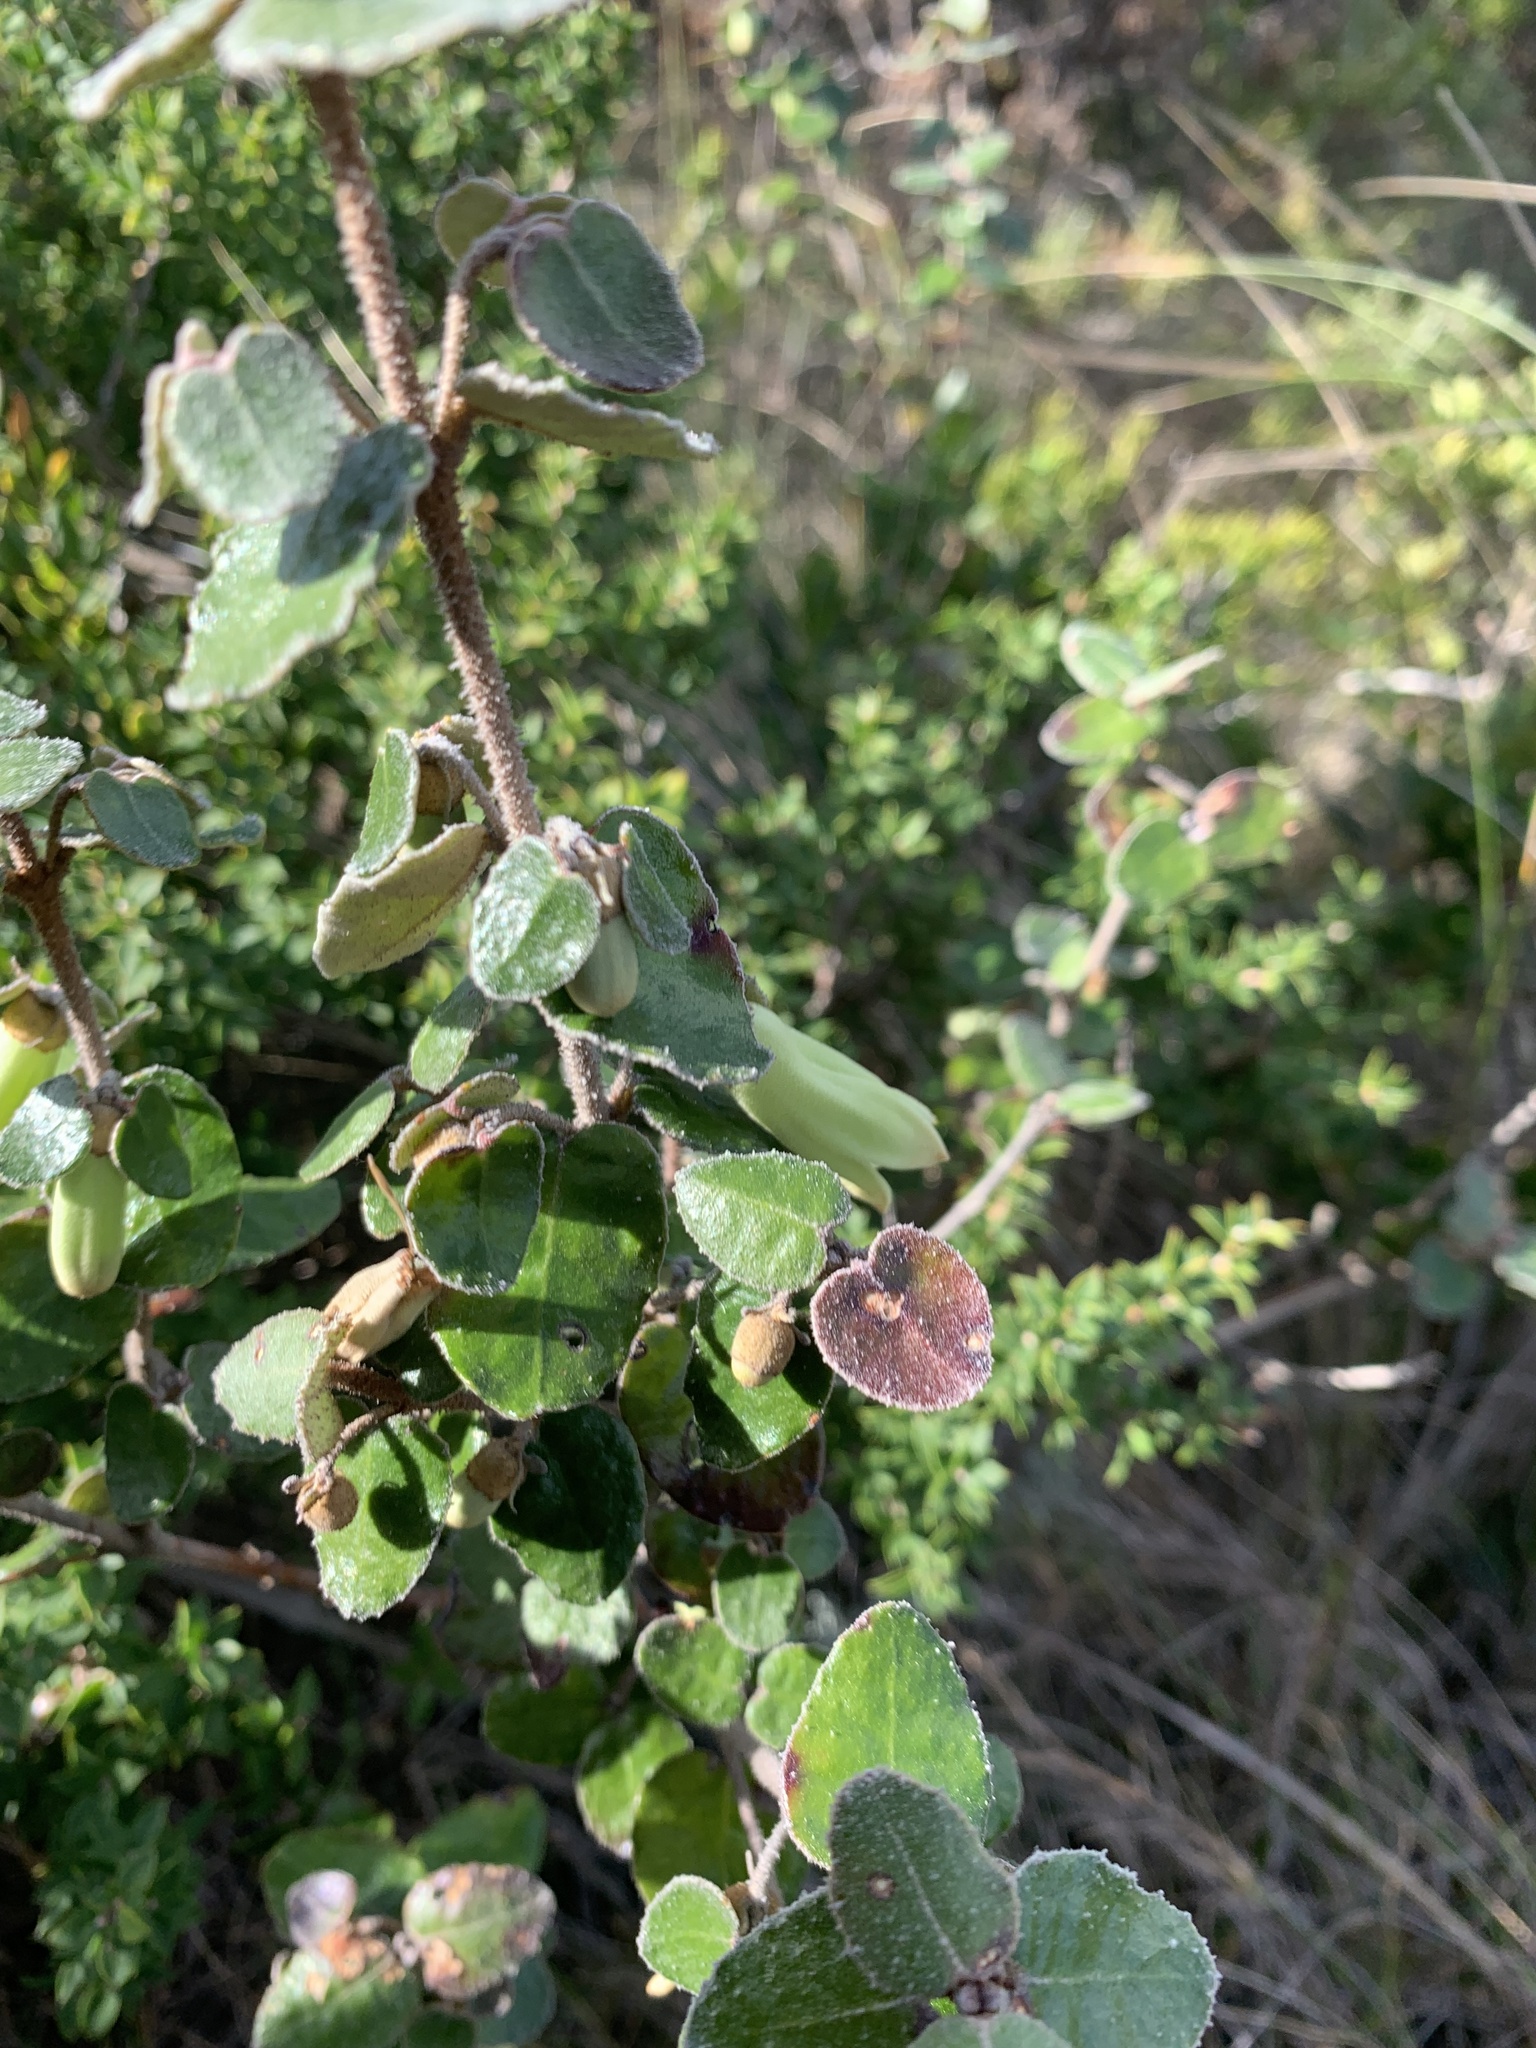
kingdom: Plantae
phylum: Tracheophyta
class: Magnoliopsida
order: Sapindales
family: Rutaceae
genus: Correa
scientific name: Correa reflexa
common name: Common correa
